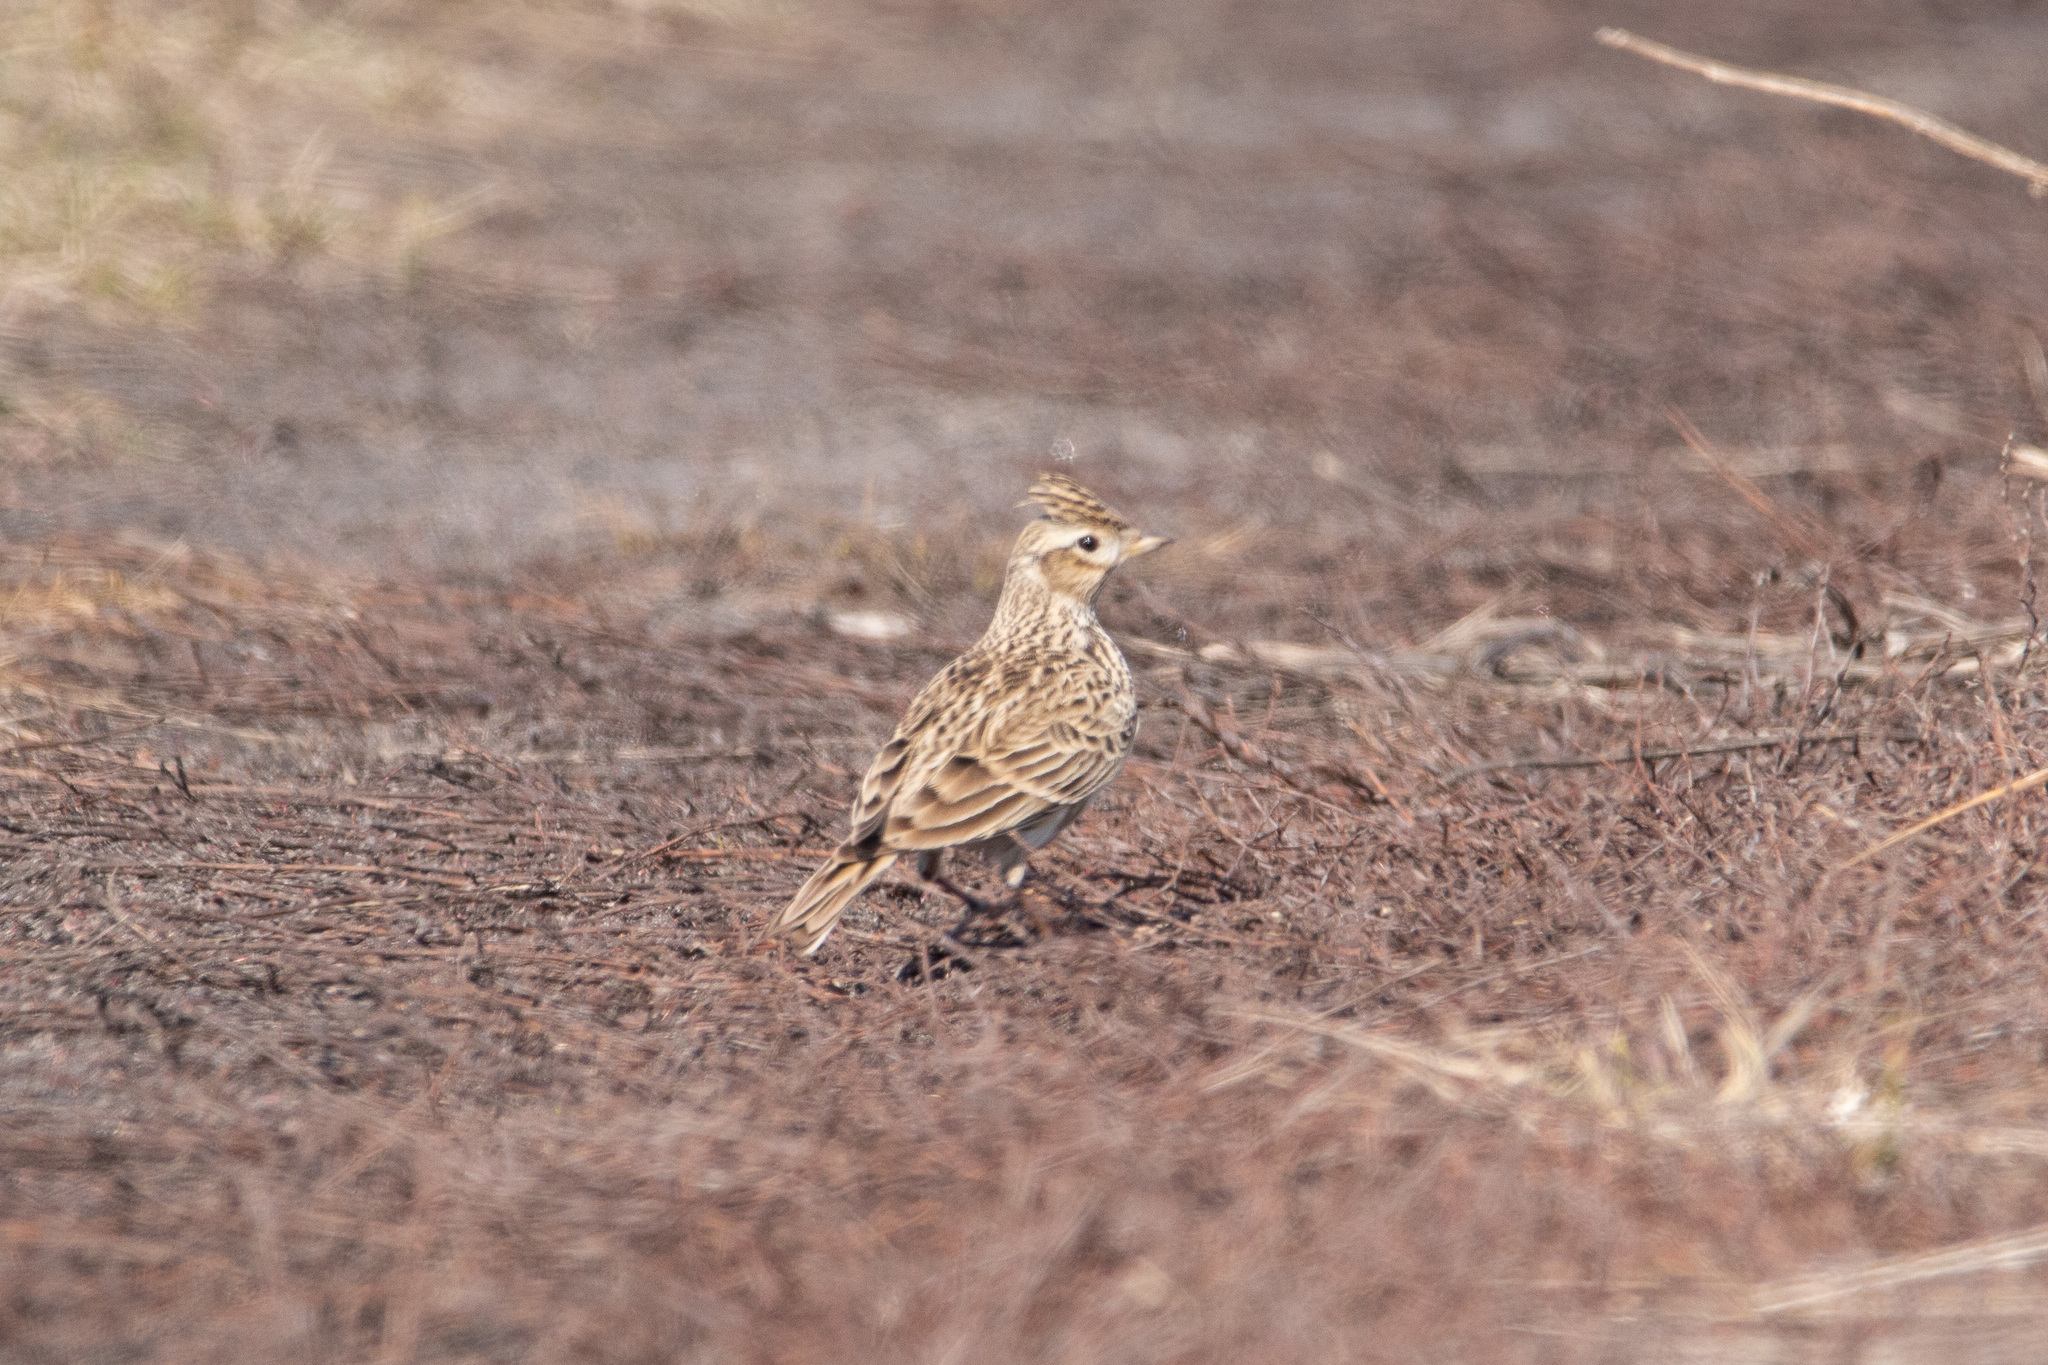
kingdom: Animalia
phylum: Chordata
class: Aves
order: Passeriformes
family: Alaudidae
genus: Alauda
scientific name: Alauda arvensis
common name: Eurasian skylark
